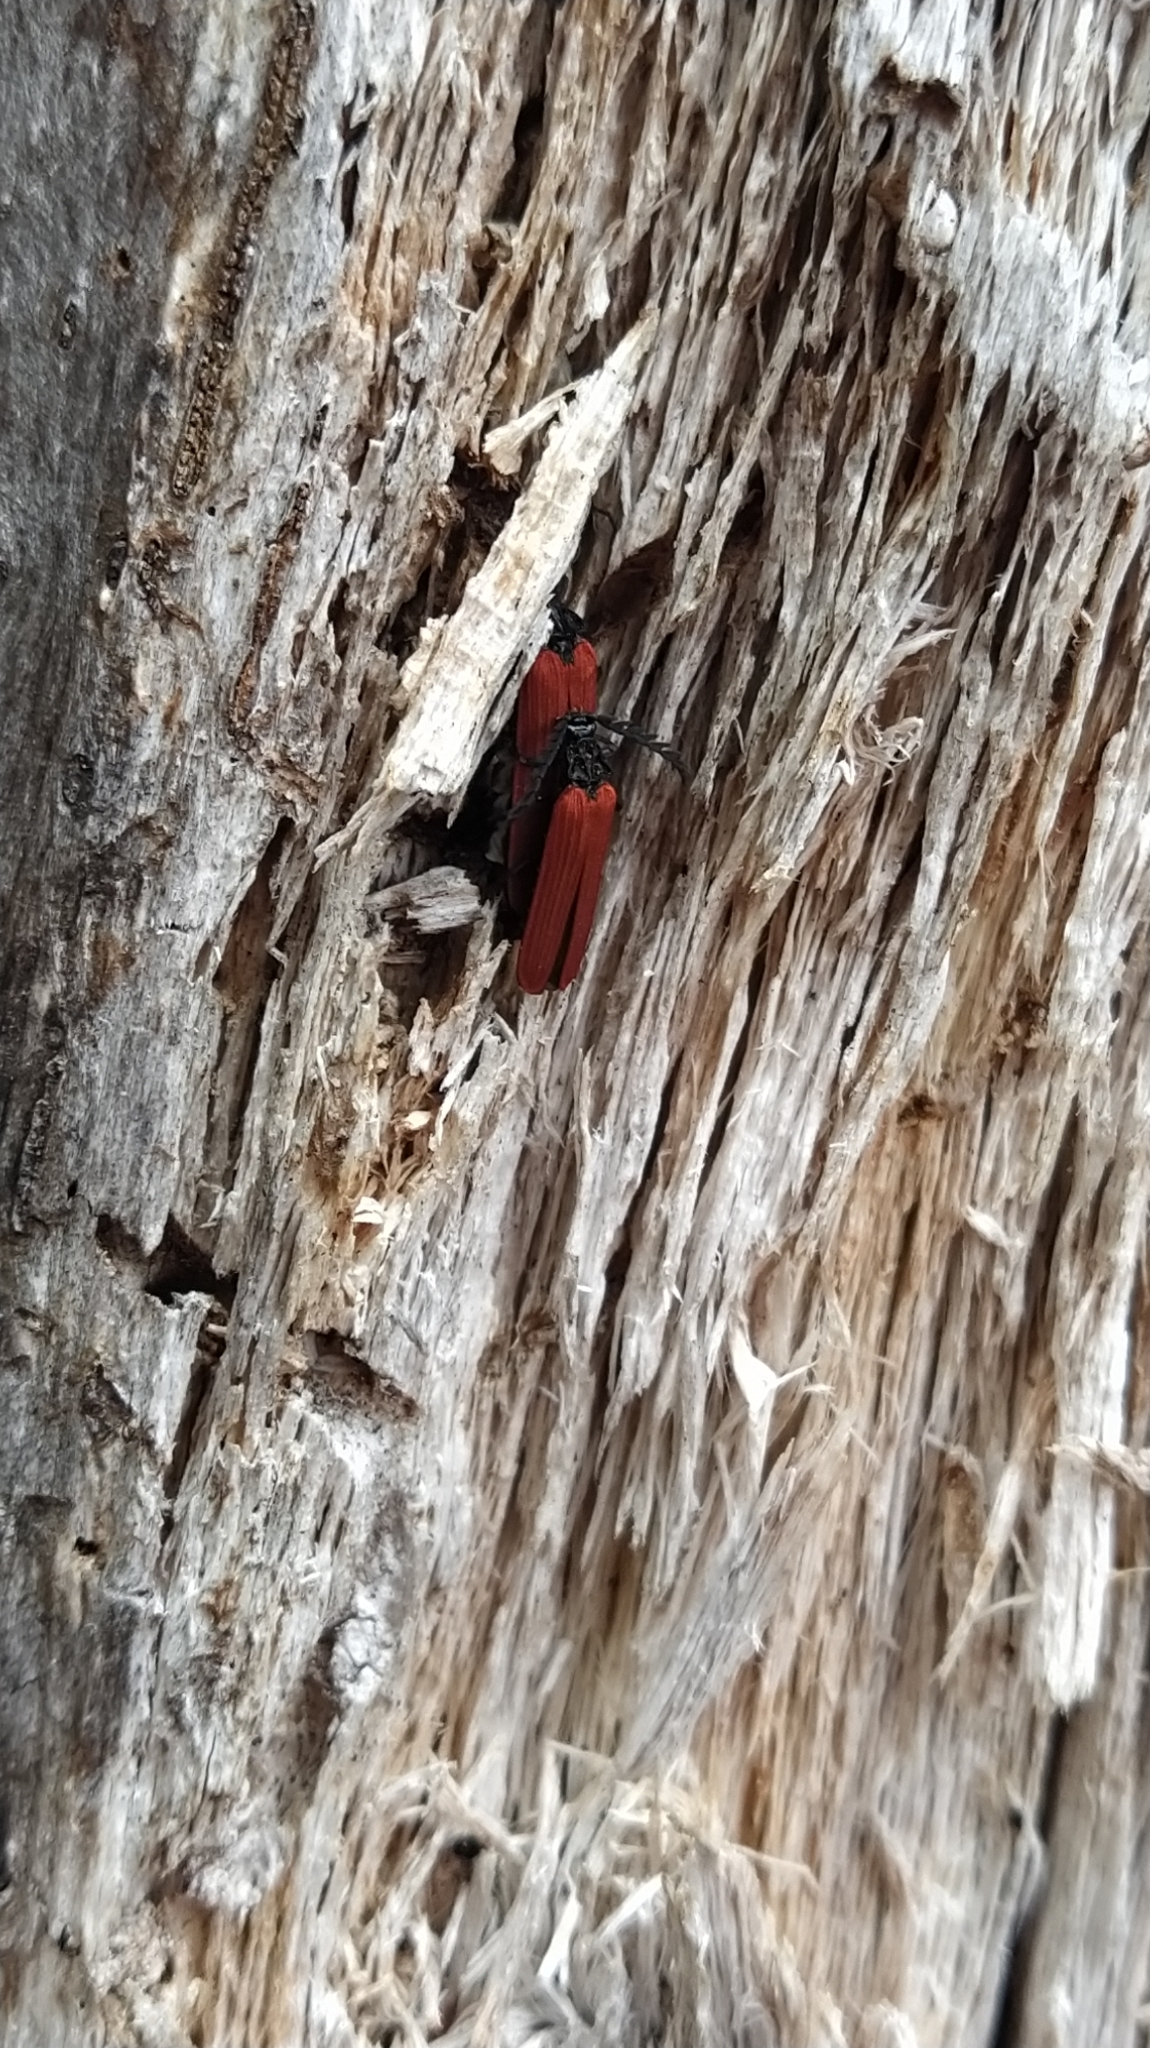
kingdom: Animalia
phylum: Arthropoda
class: Insecta
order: Coleoptera
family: Lycidae
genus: Porrostoma
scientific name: Porrostoma rufipenne
